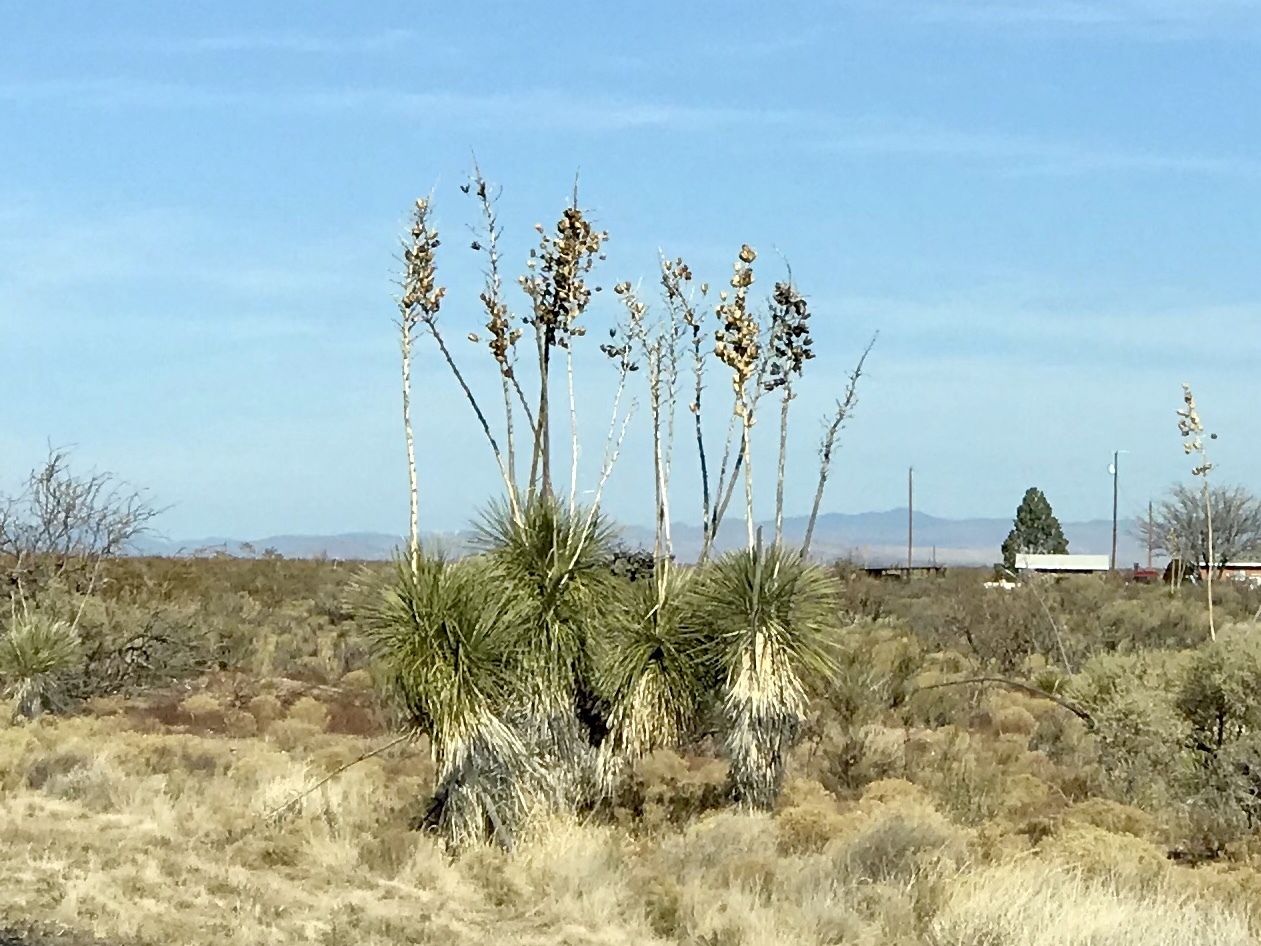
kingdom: Plantae
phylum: Tracheophyta
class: Liliopsida
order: Asparagales
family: Asparagaceae
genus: Yucca
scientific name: Yucca elata
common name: Palmella
